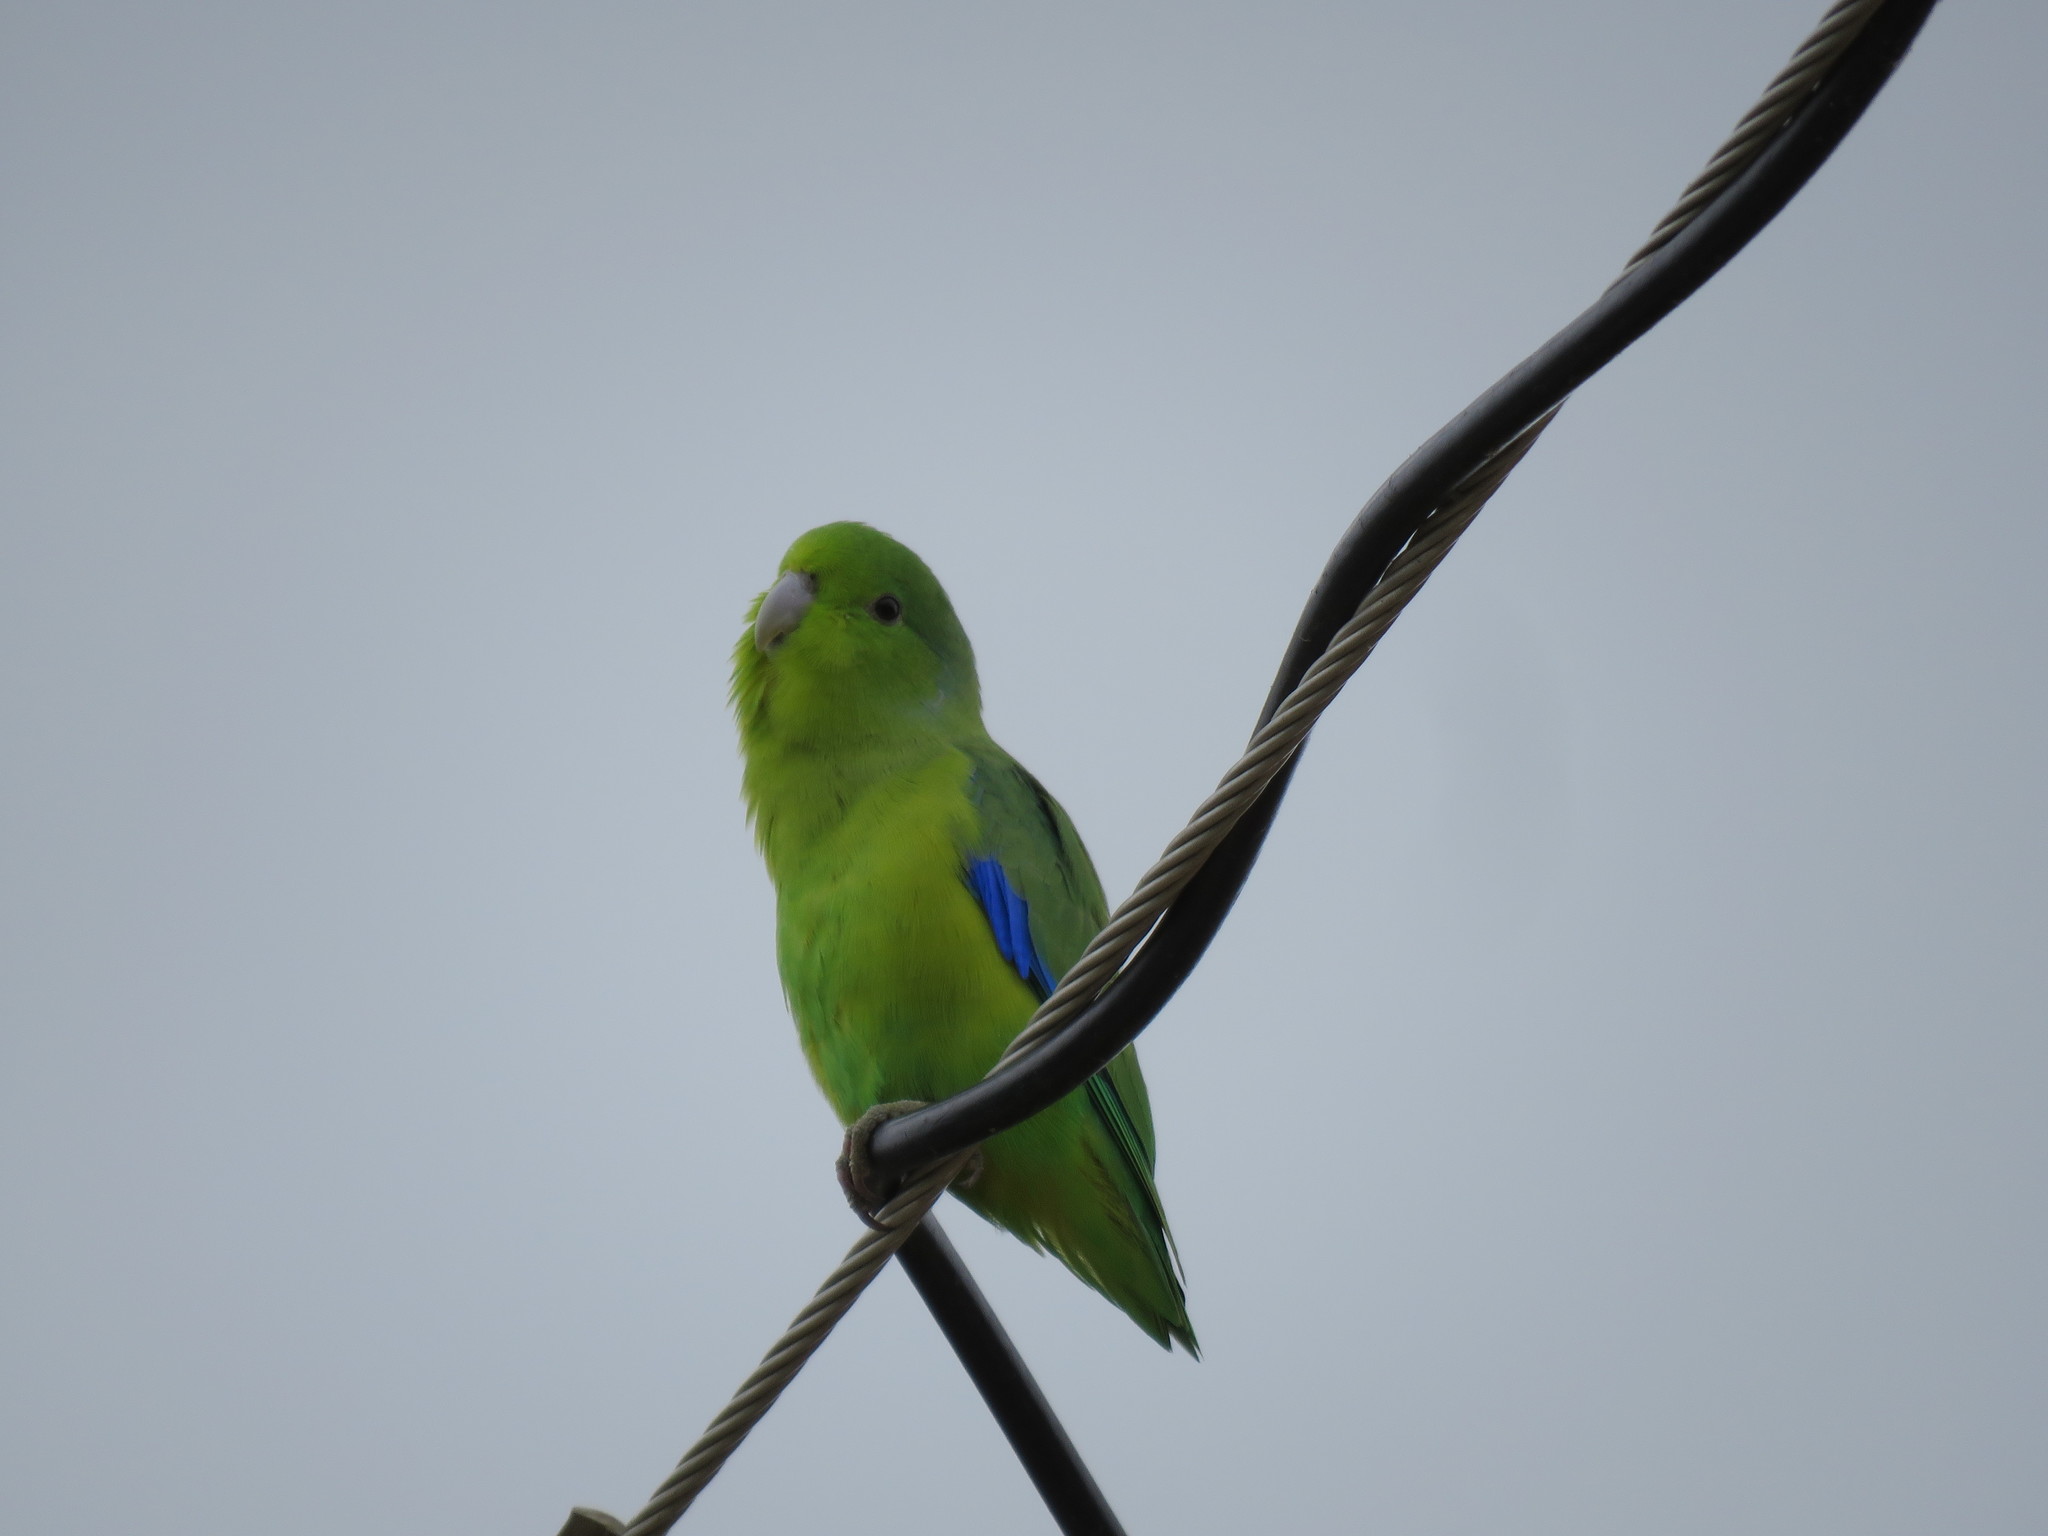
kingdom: Animalia
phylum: Chordata
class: Aves
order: Psittaciformes
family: Psittacidae
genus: Forpus
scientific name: Forpus xanthopterygius
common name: Blue-winged parrotlet
